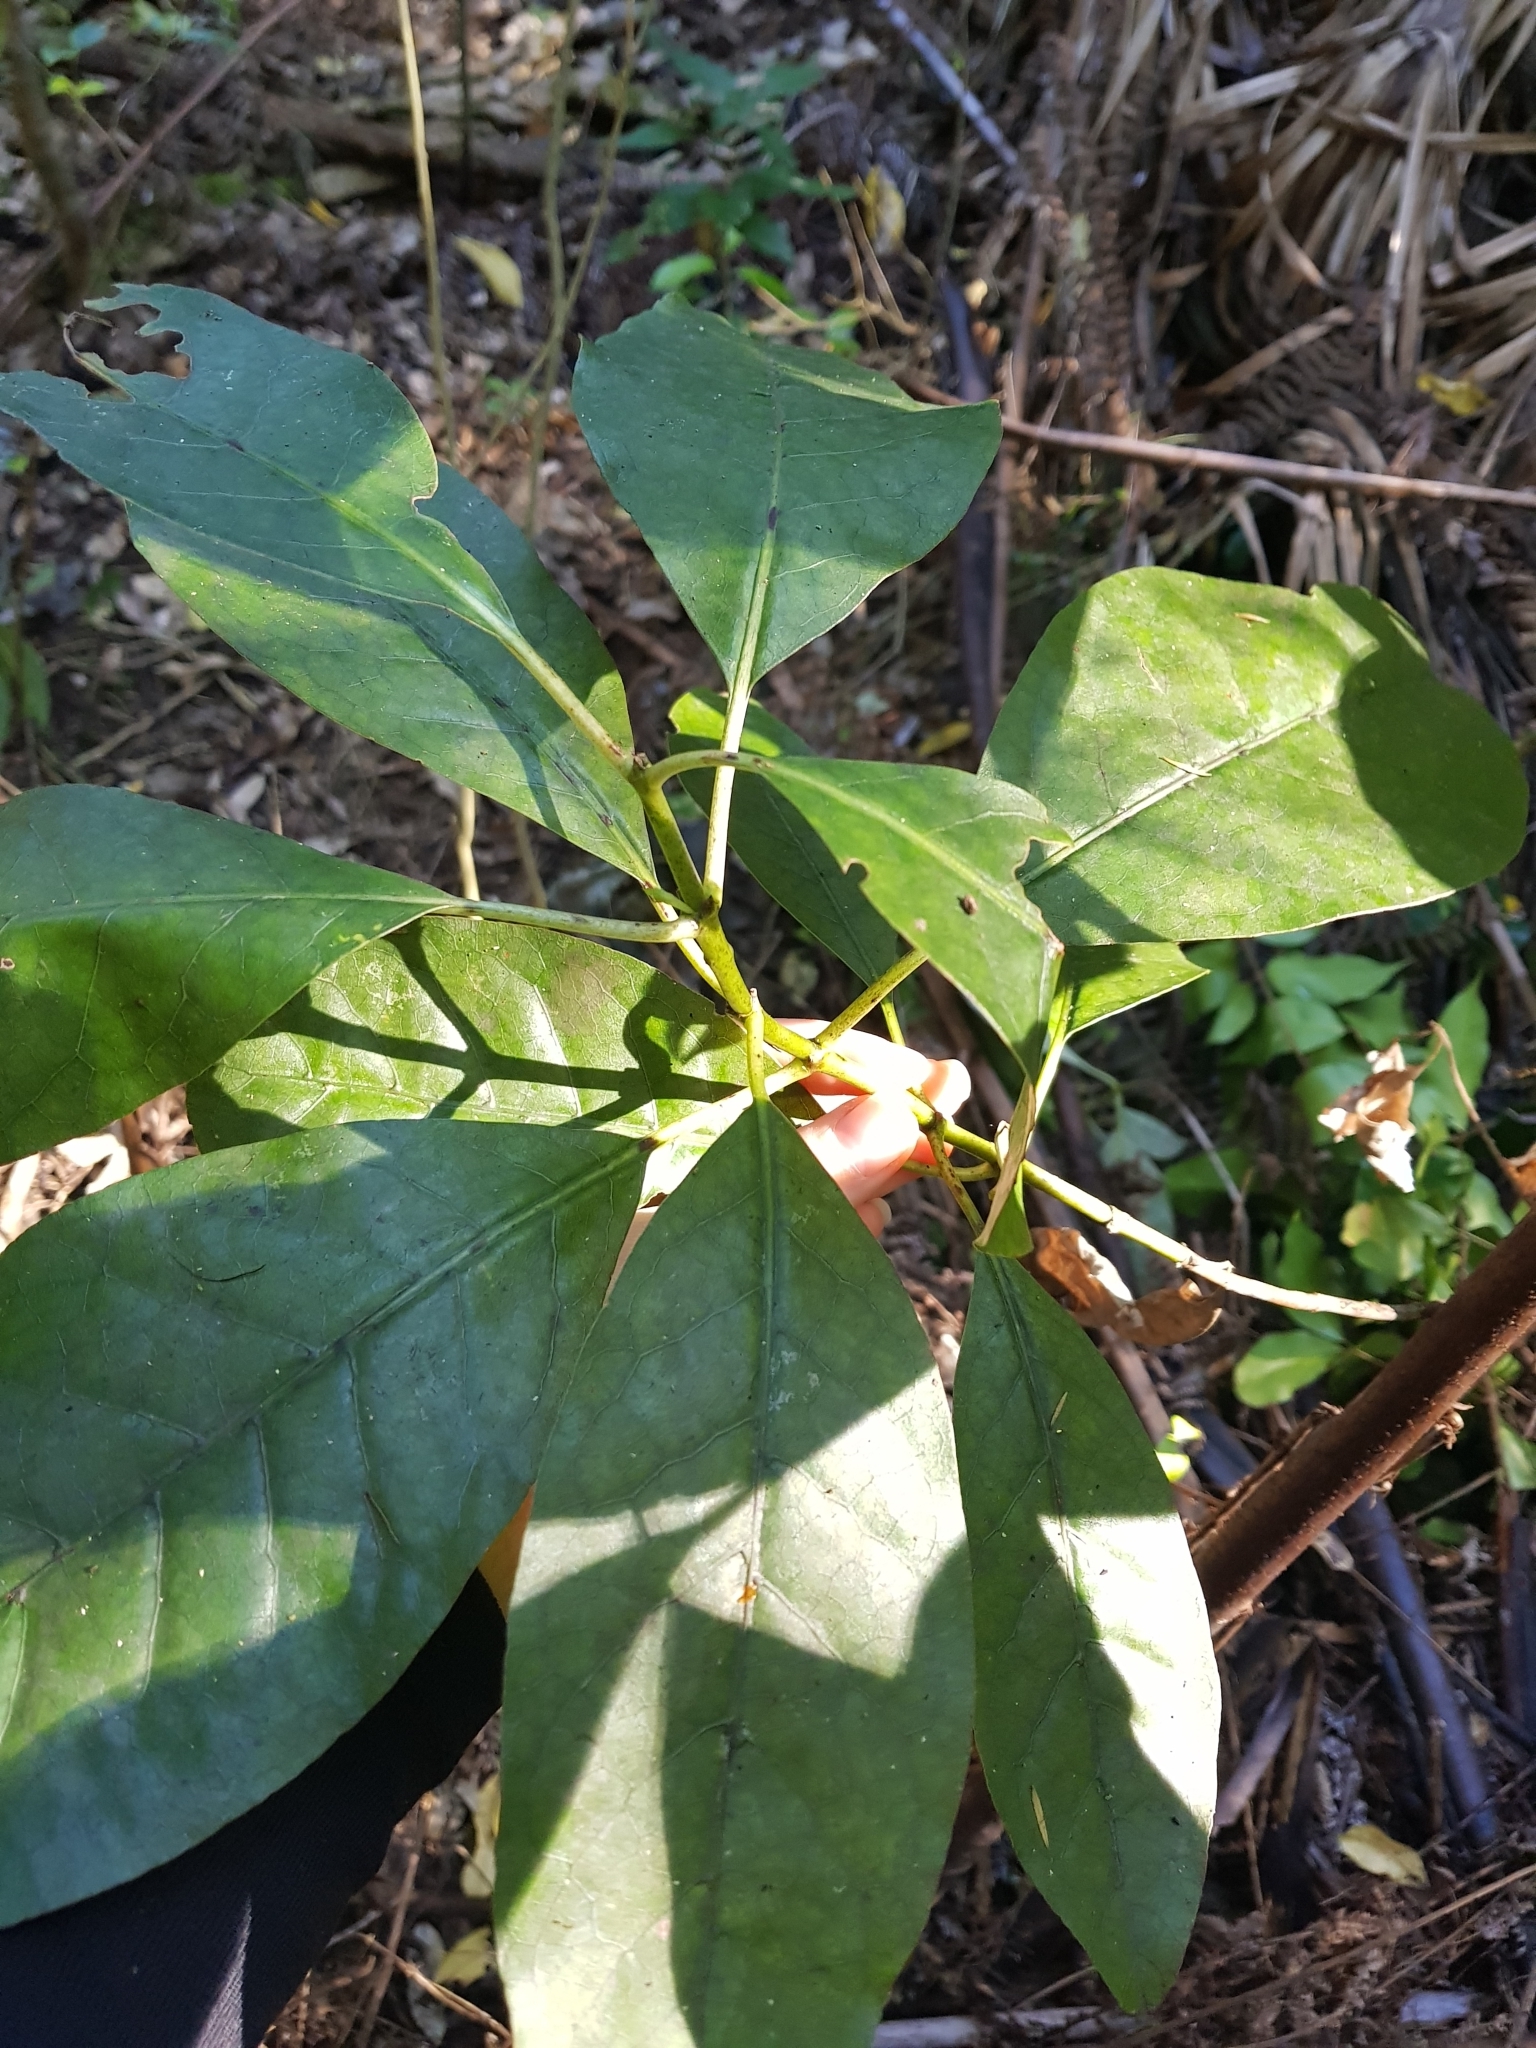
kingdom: Plantae
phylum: Tracheophyta
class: Magnoliopsida
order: Gentianales
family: Rubiaceae
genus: Coprosma
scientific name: Coprosma autumnalis
